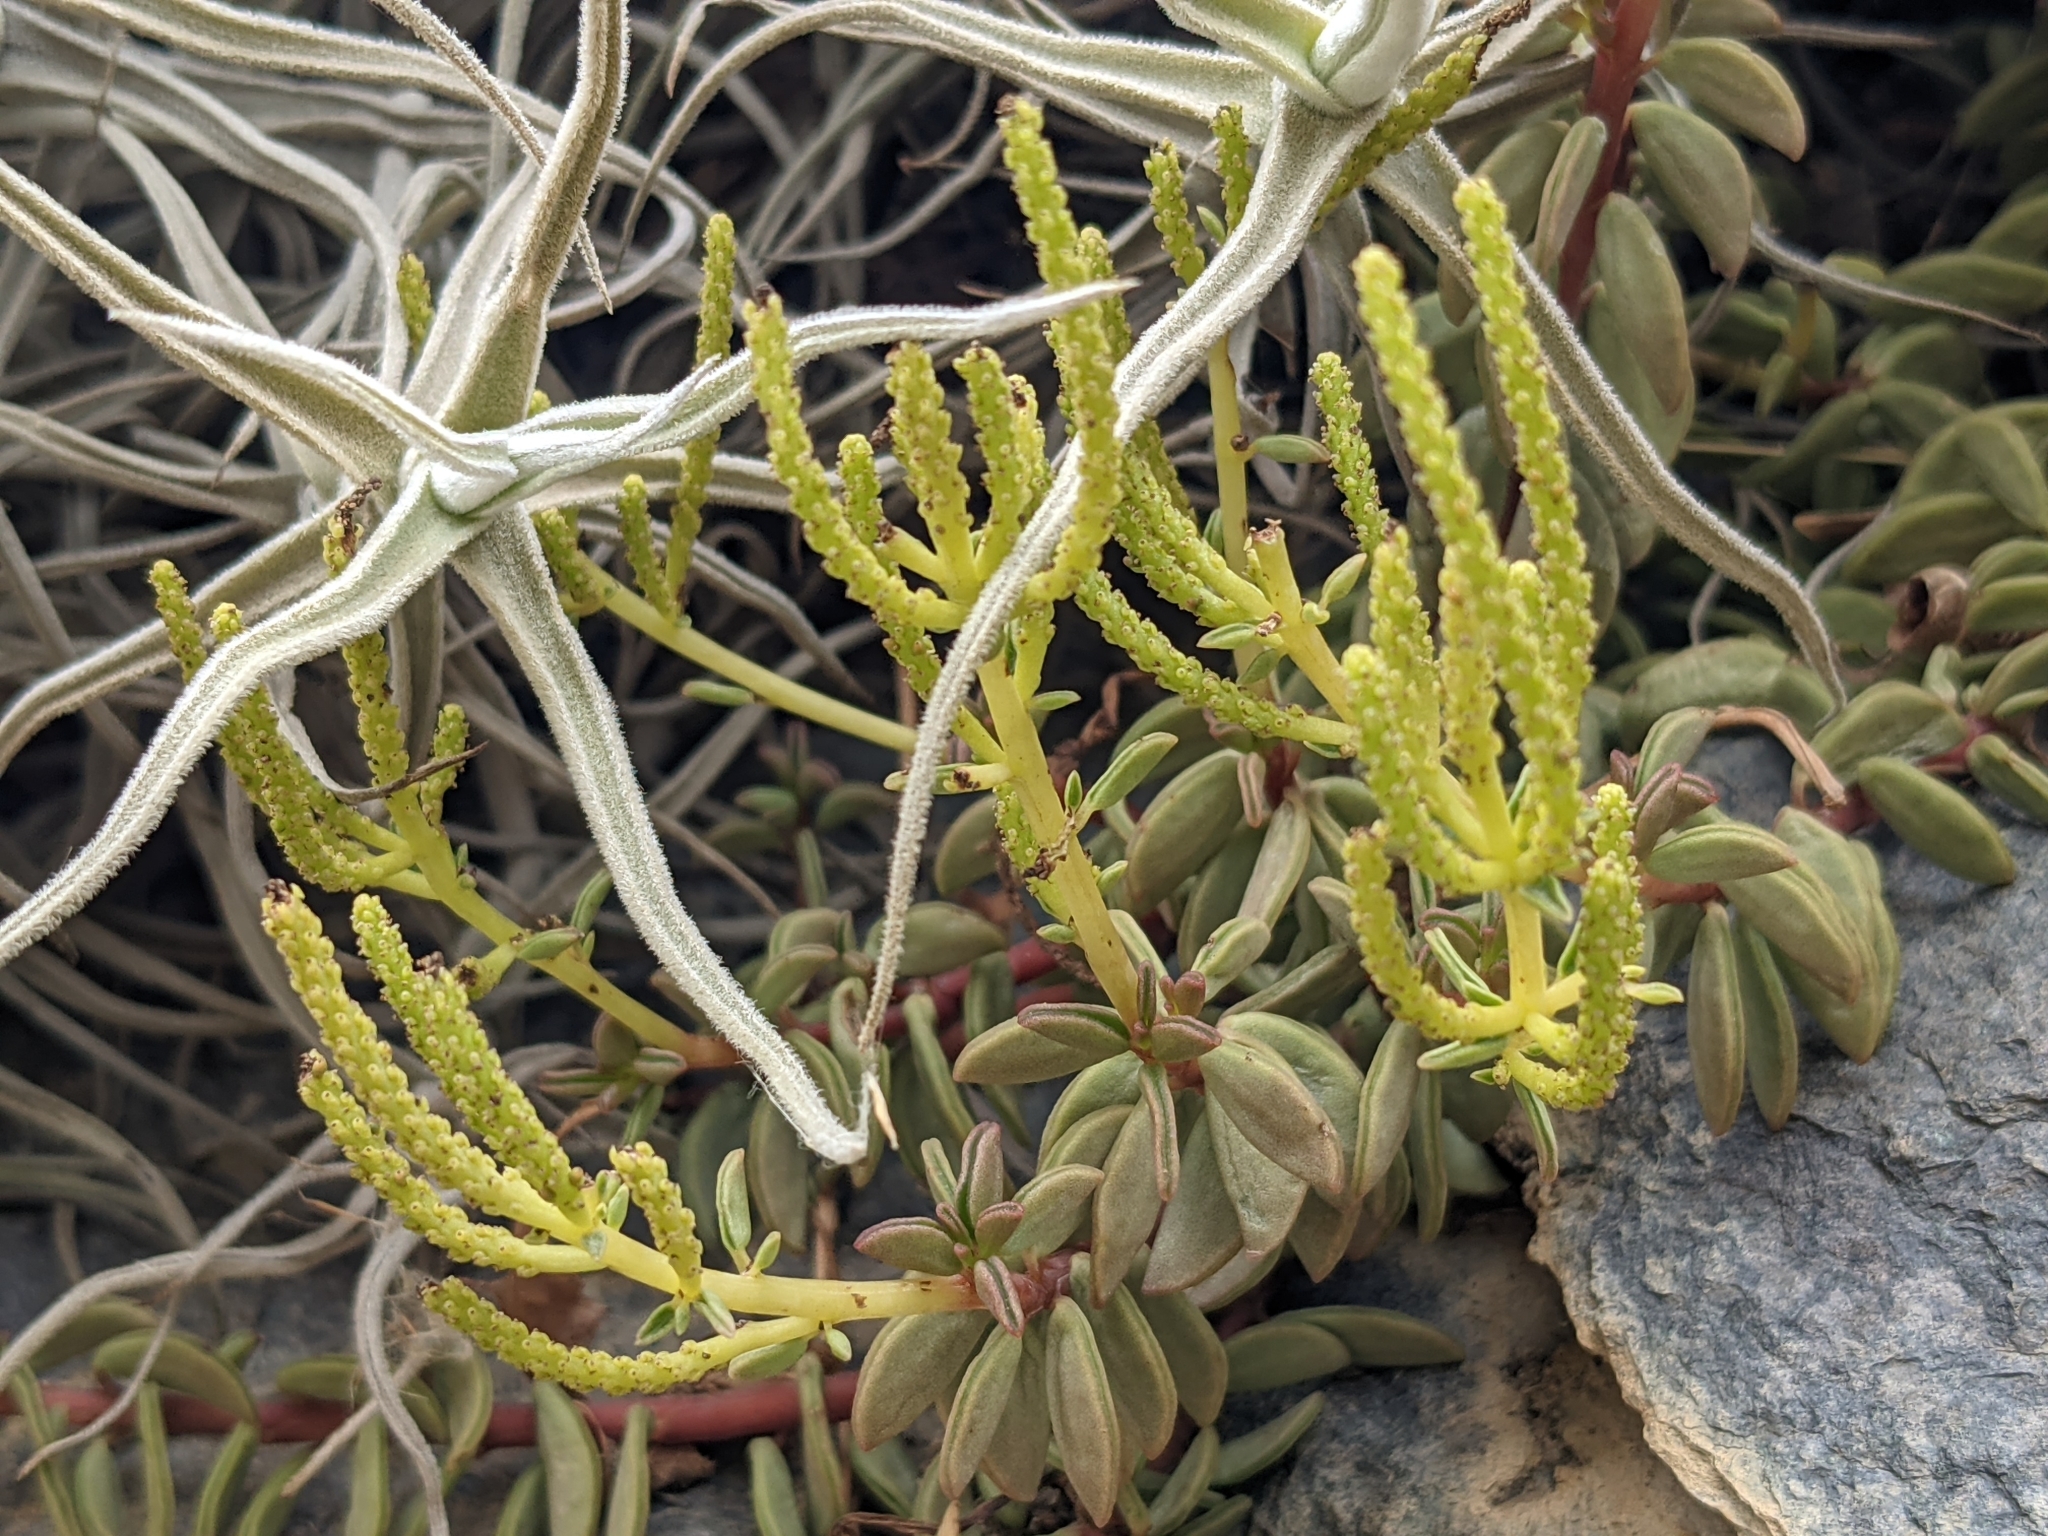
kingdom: Plantae
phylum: Tracheophyta
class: Magnoliopsida
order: Piperales
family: Piperaceae
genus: Peperomia
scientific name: Peperomia nivalis
